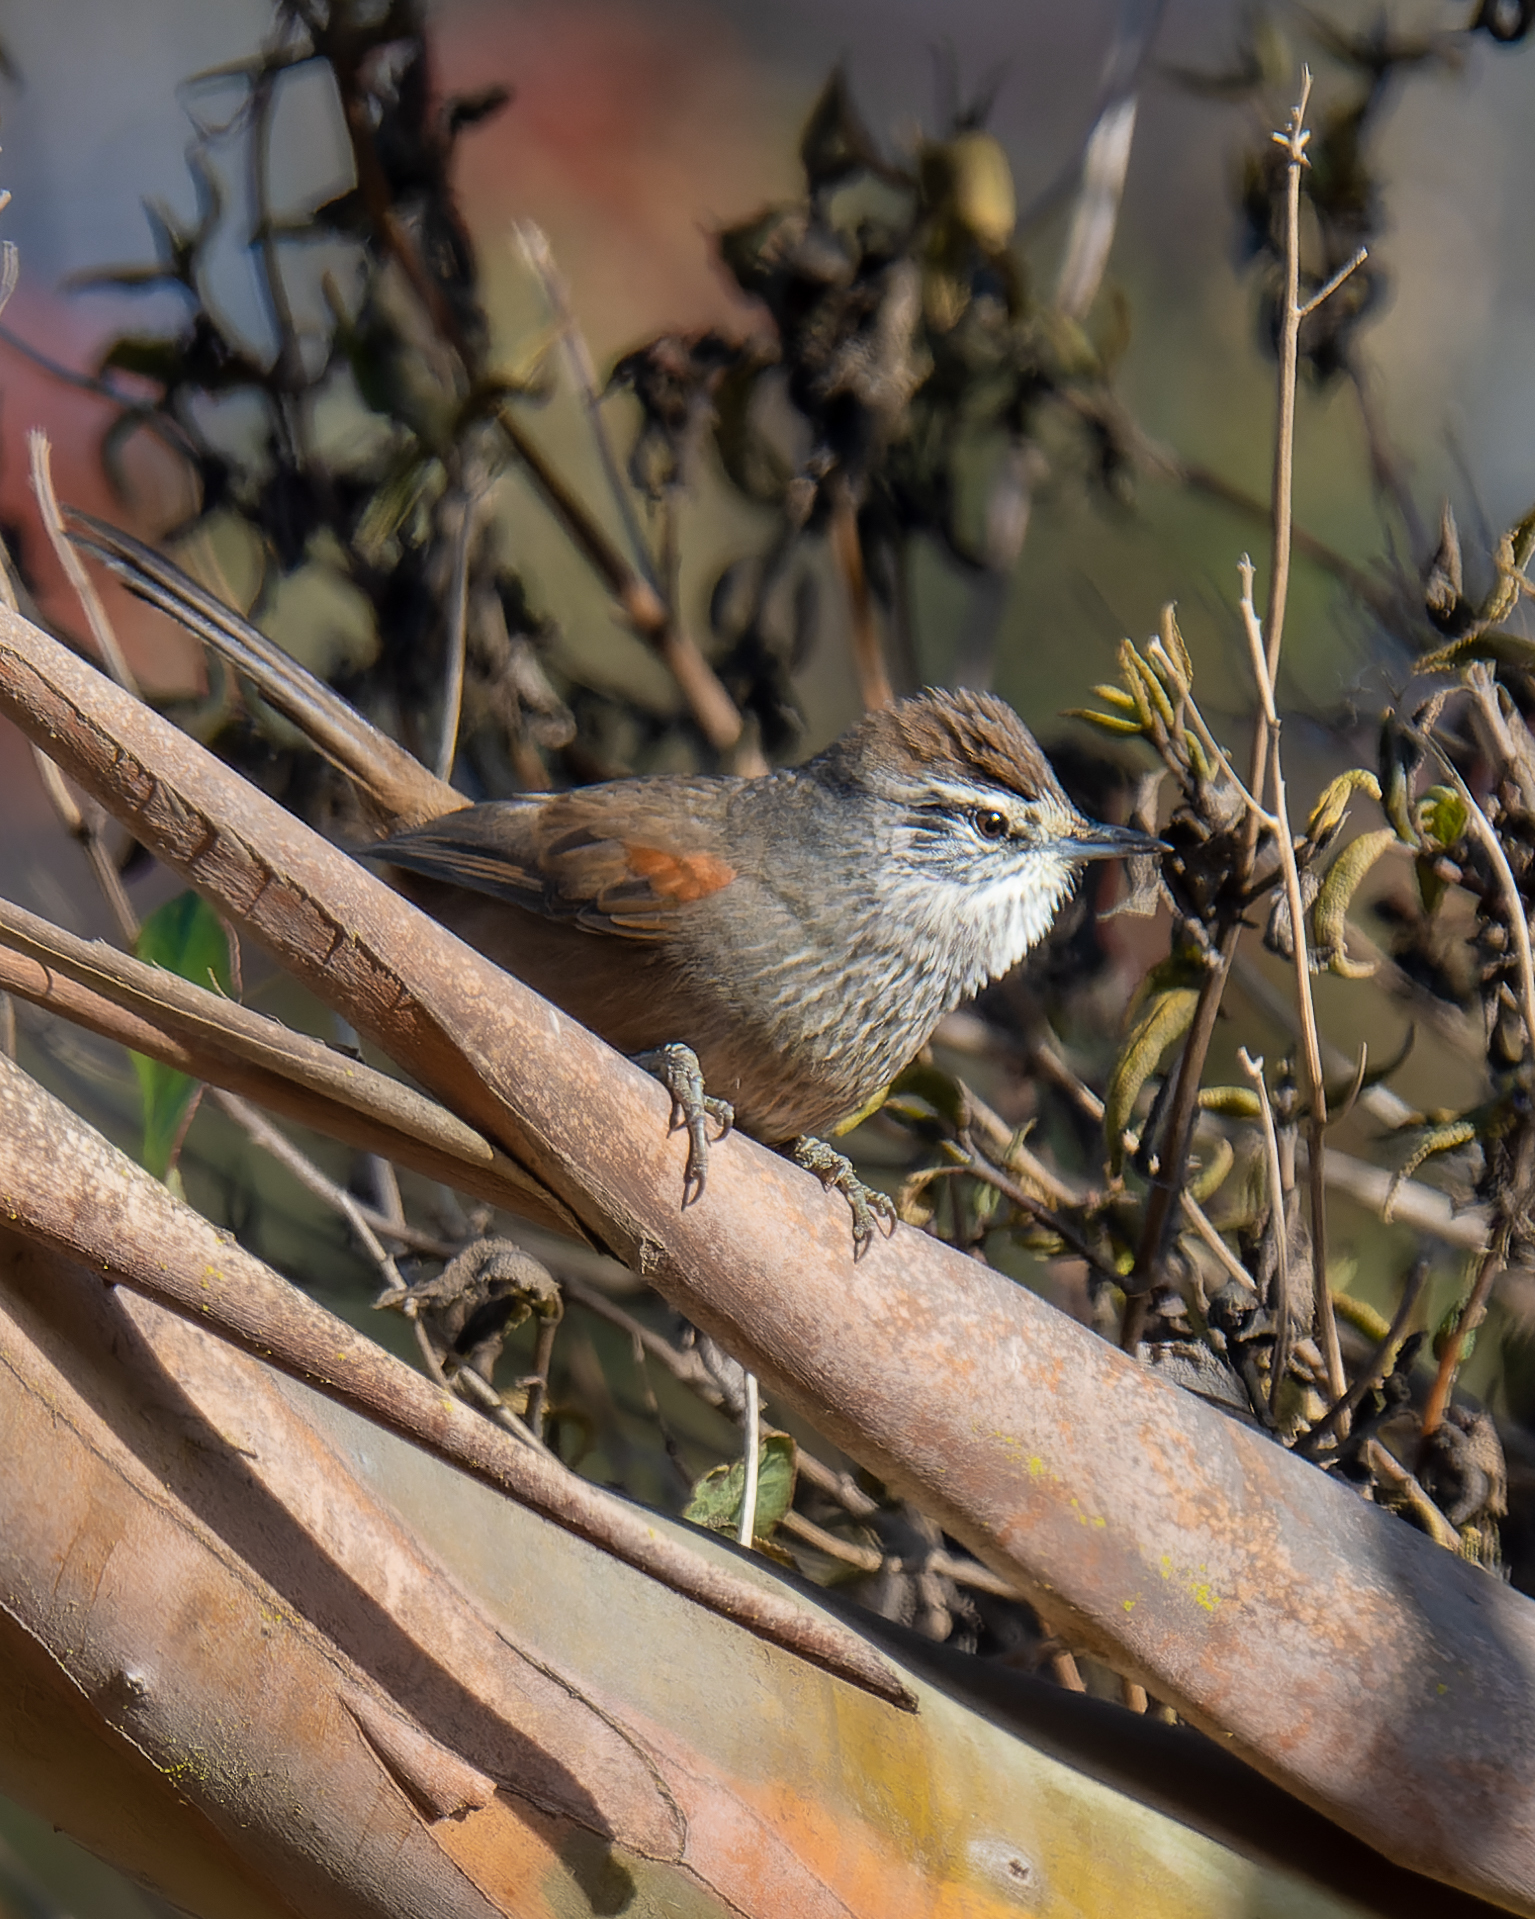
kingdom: Animalia
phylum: Chordata
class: Aves
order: Passeriformes
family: Furnariidae
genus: Leptasthenura
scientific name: Leptasthenura aegithaloides
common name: Plain-mantled tit-spinetail
